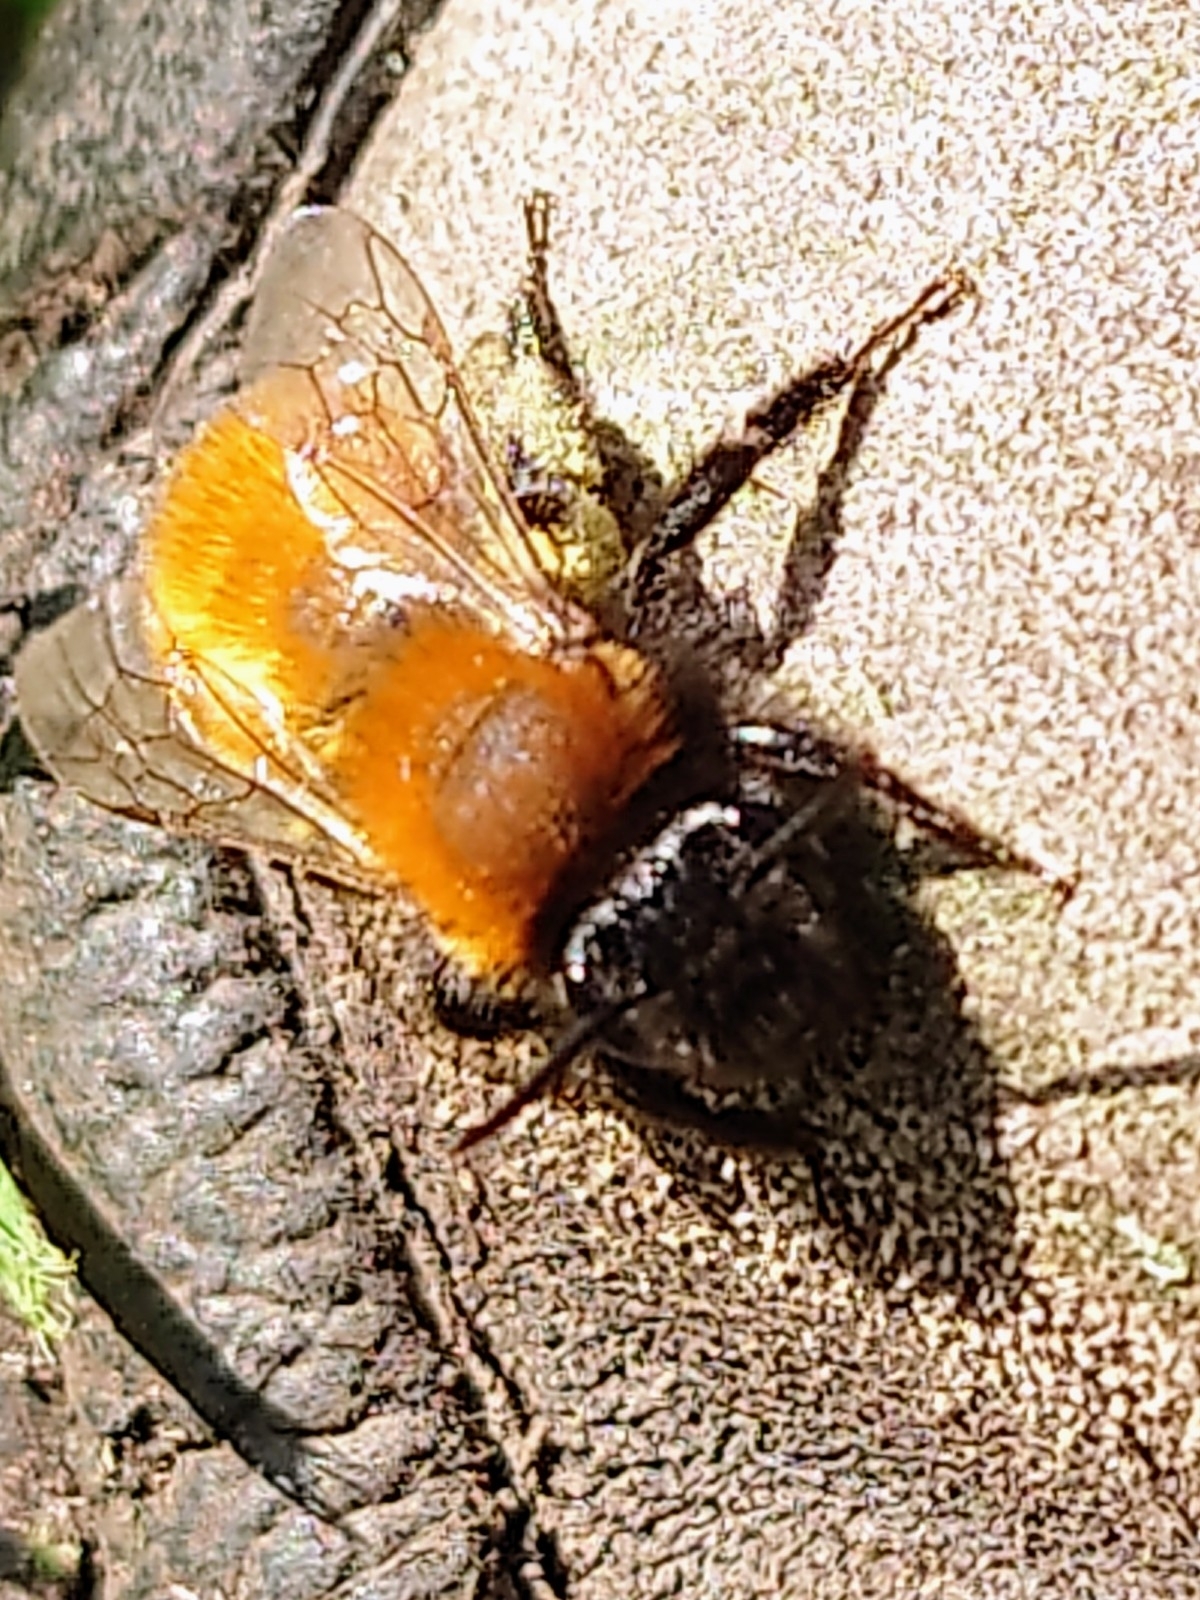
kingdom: Animalia
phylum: Arthropoda
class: Insecta
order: Hymenoptera
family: Andrenidae
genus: Andrena
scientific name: Andrena fulva
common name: Tawny mining bee
